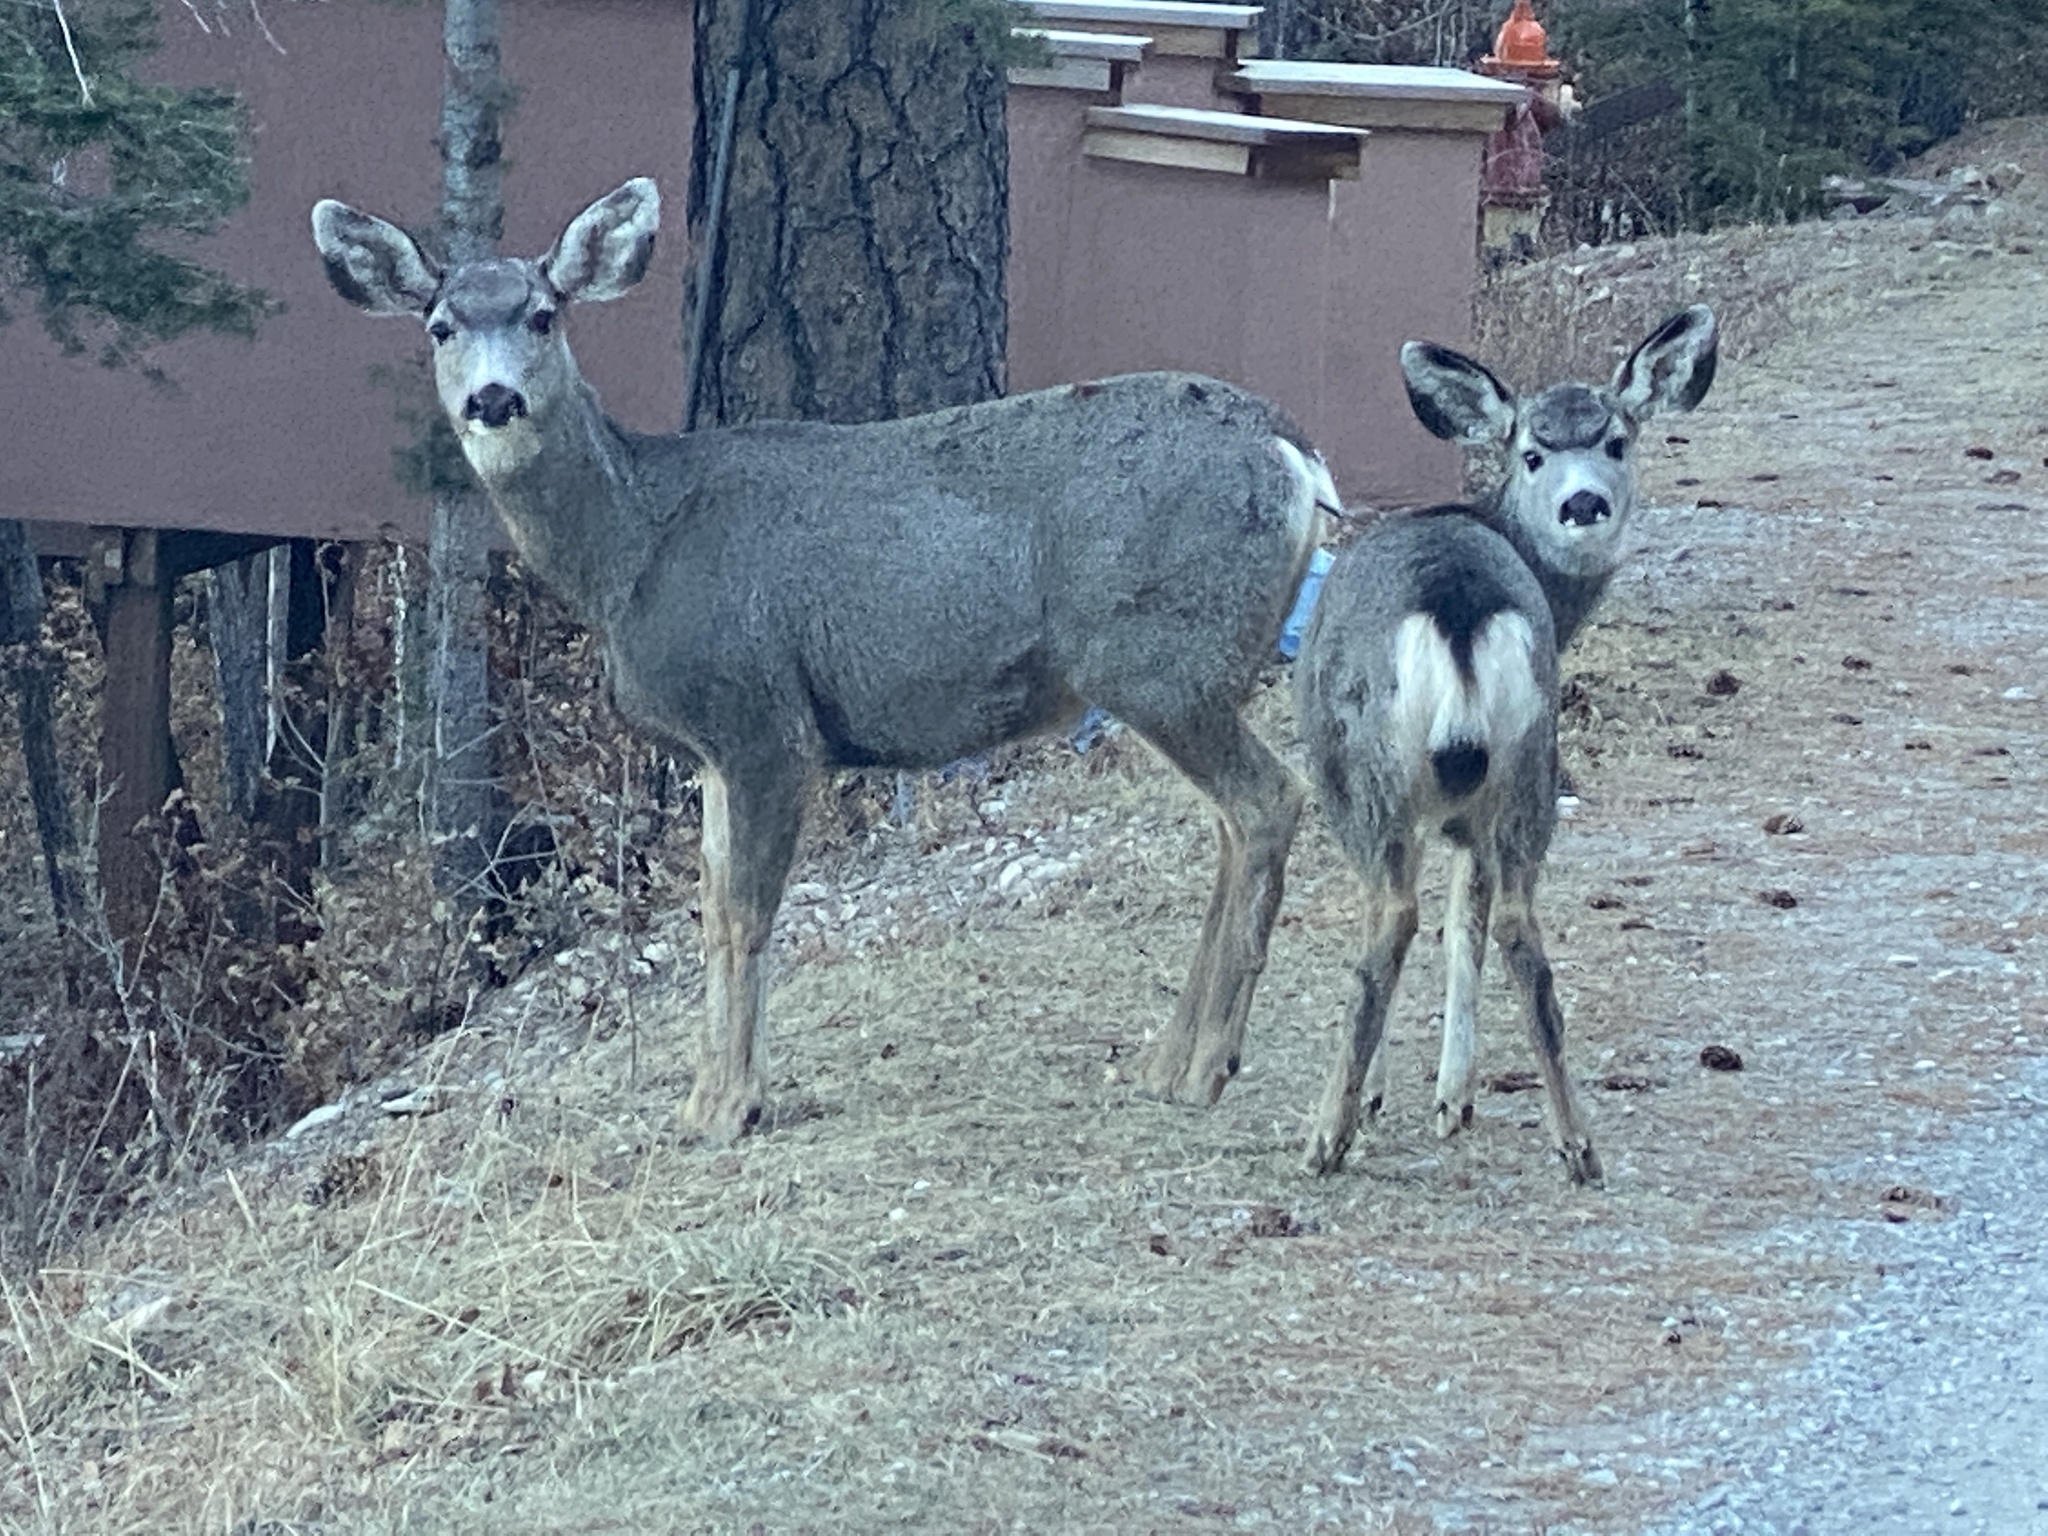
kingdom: Animalia
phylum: Chordata
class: Mammalia
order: Artiodactyla
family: Cervidae
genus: Odocoileus
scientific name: Odocoileus hemionus
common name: Mule deer
